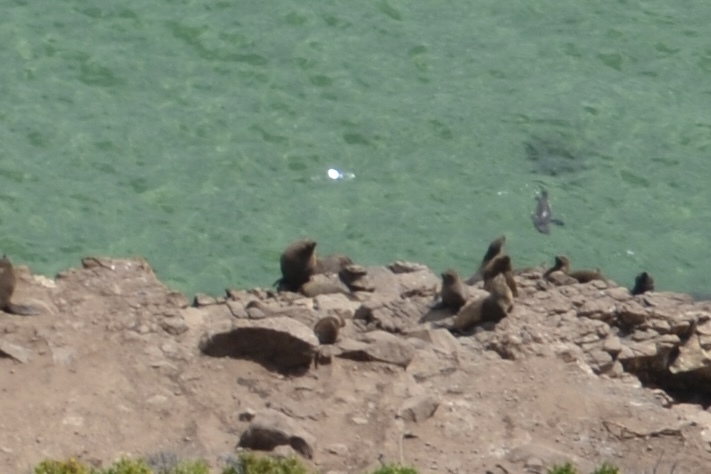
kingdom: Animalia
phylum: Chordata
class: Mammalia
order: Carnivora
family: Otariidae
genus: Arctocephalus
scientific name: Arctocephalus pusillus
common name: Brown fur seal
